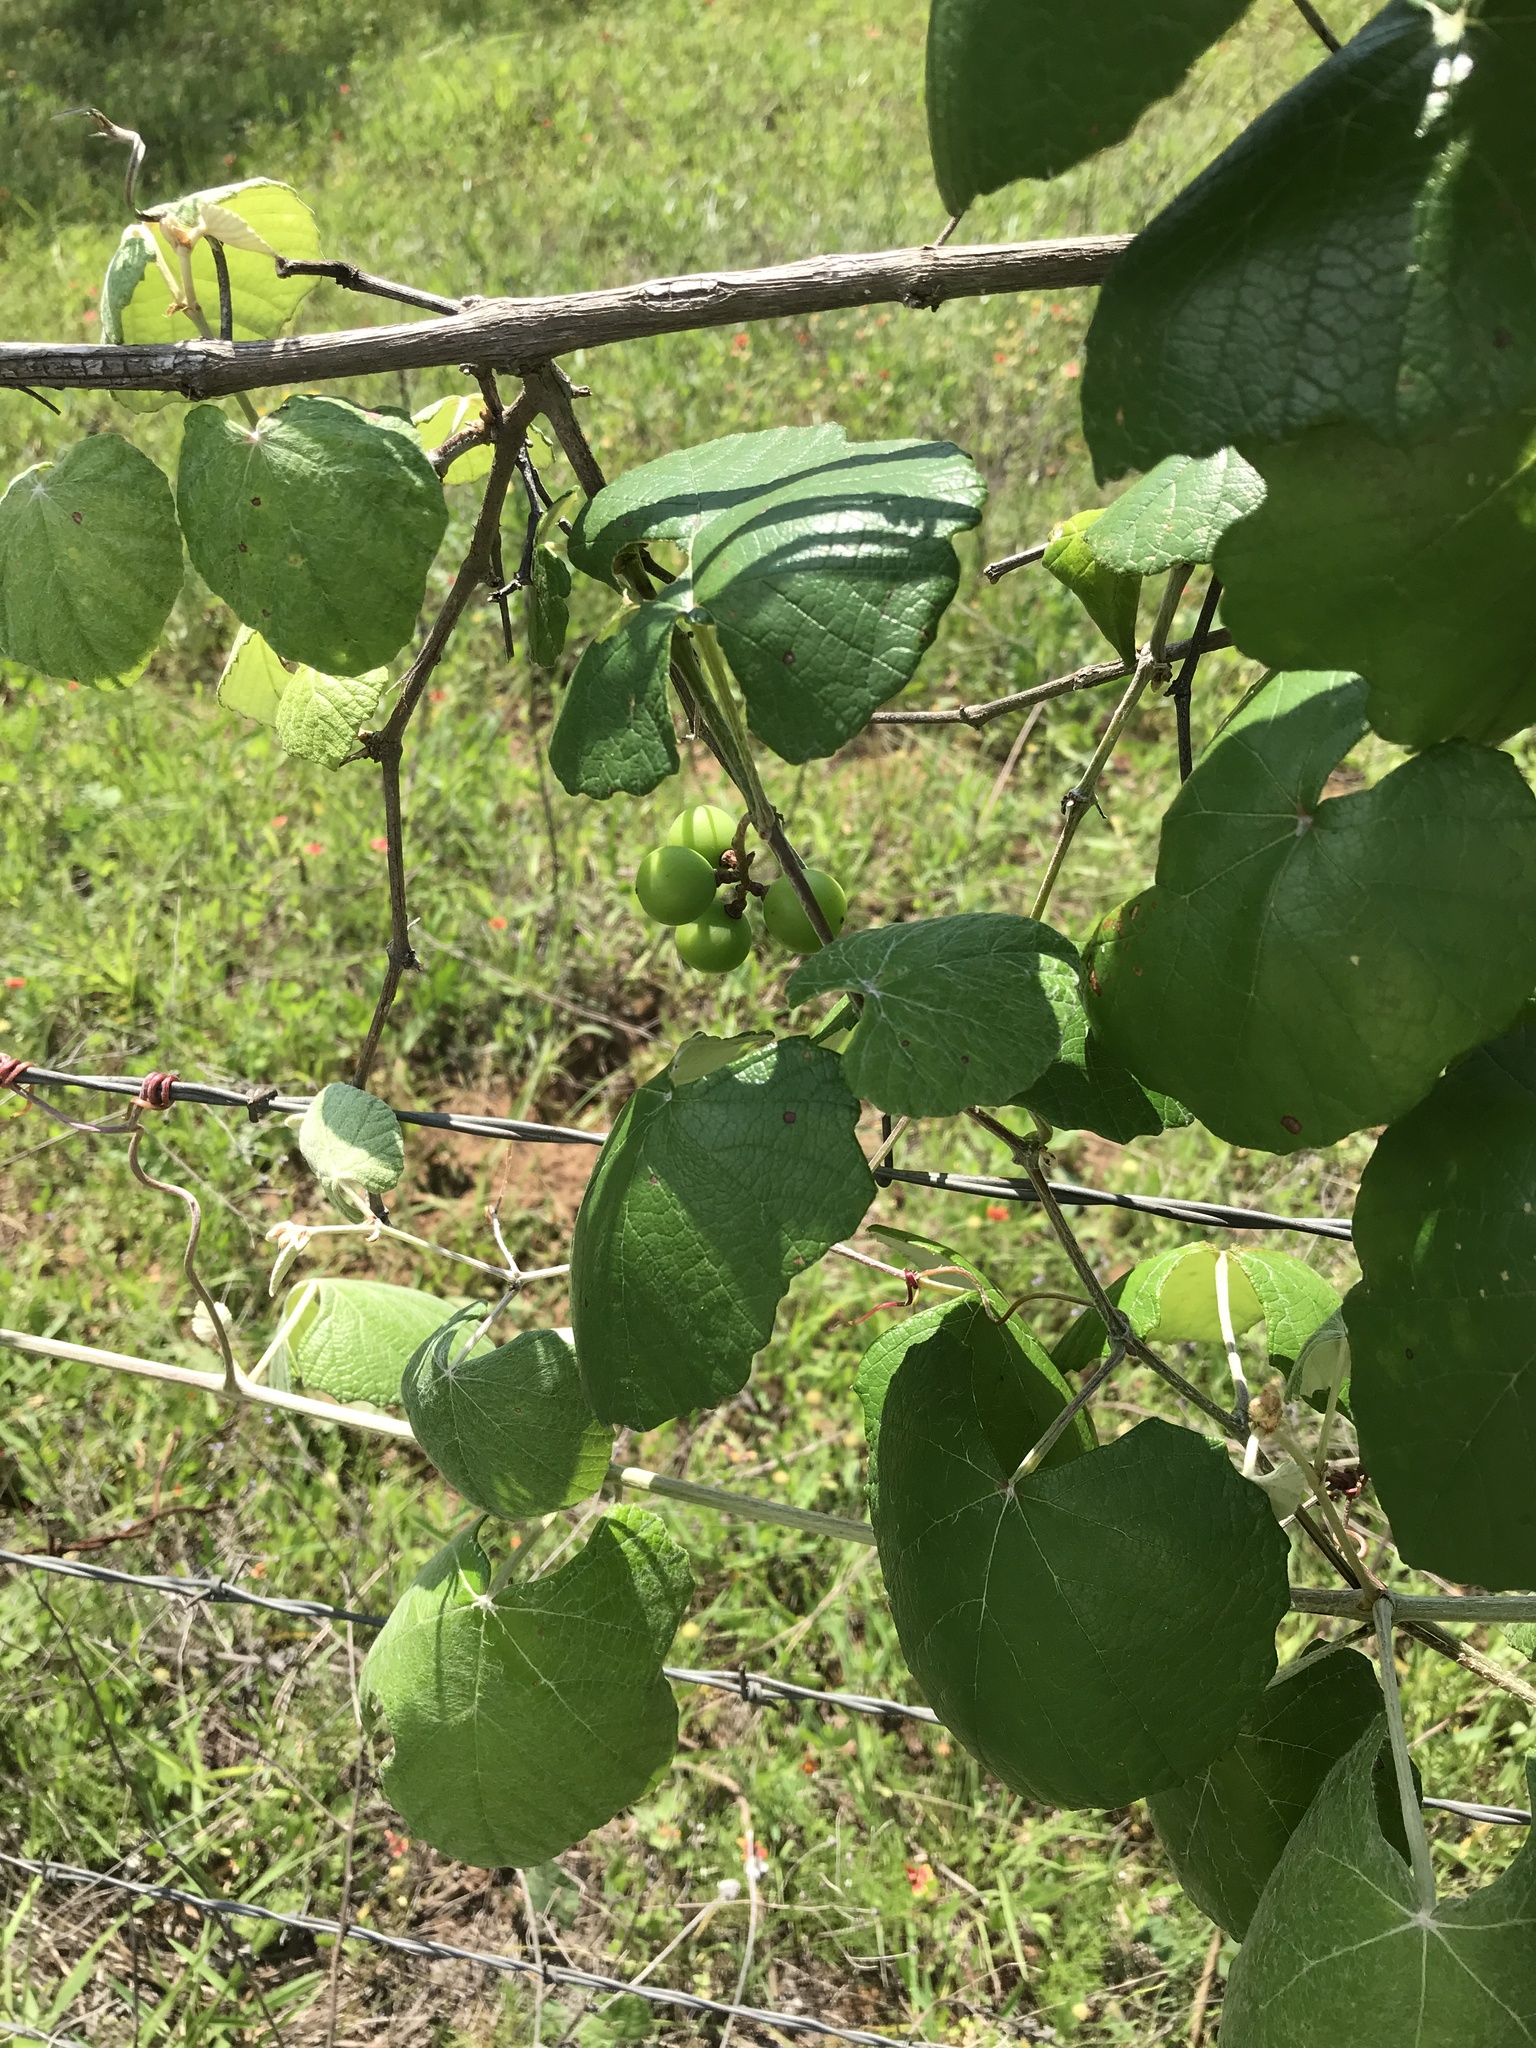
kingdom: Plantae
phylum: Tracheophyta
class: Magnoliopsida
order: Vitales
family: Vitaceae
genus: Vitis
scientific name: Vitis mustangensis
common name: Mustang grape
